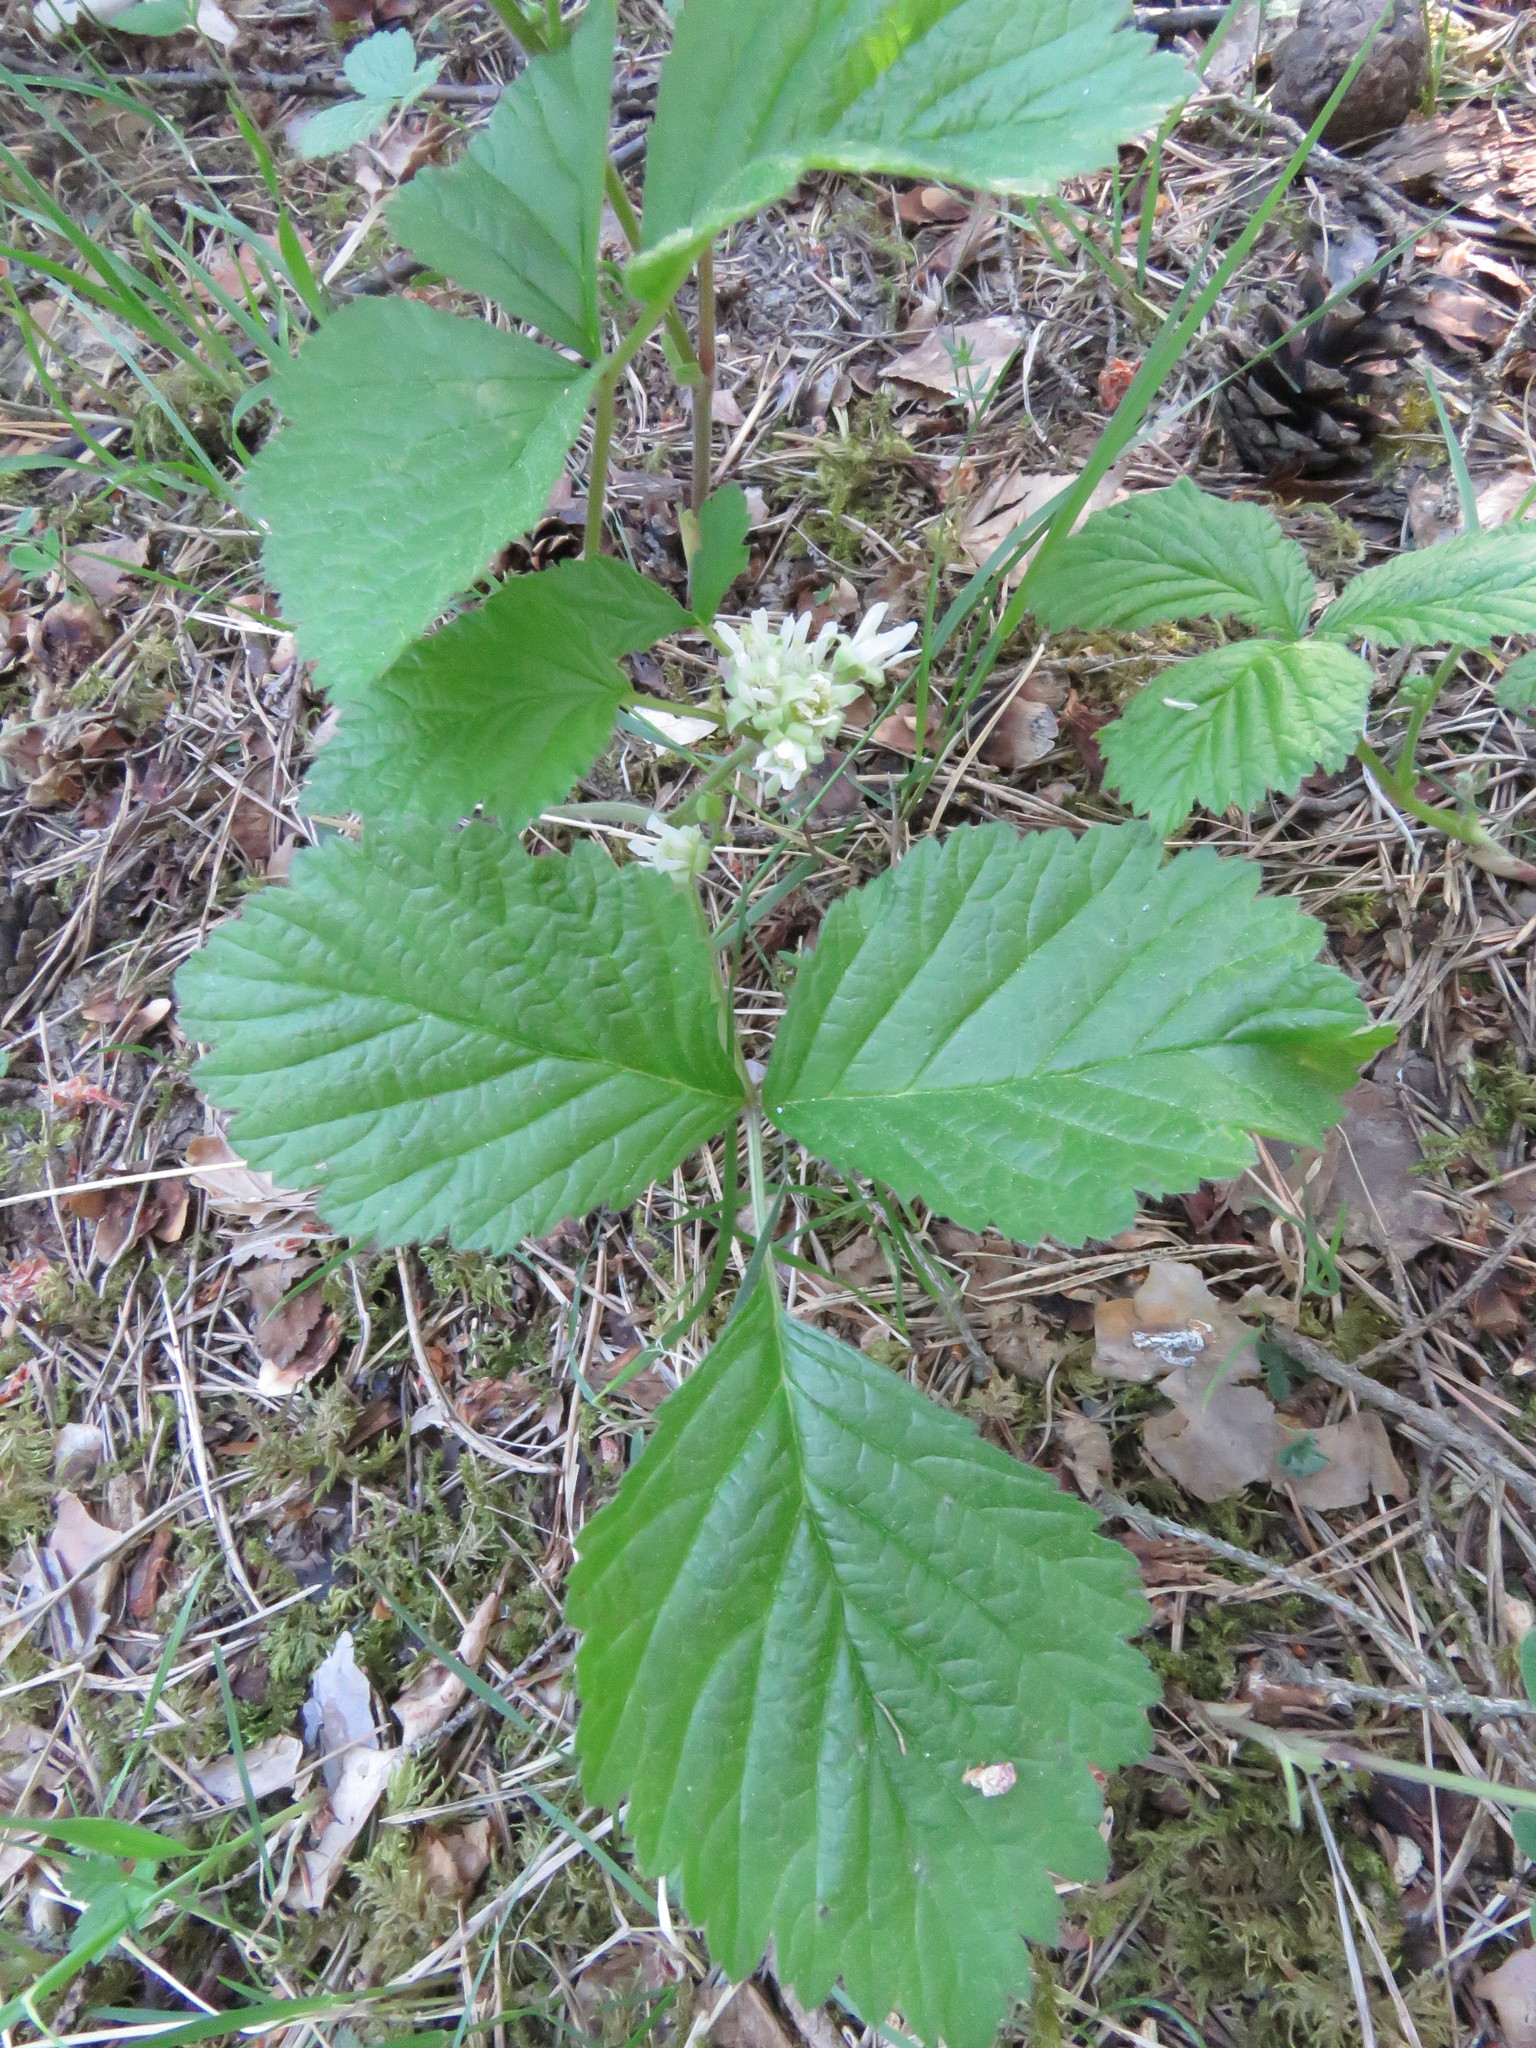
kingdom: Plantae
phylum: Tracheophyta
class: Magnoliopsida
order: Rosales
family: Rosaceae
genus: Rubus
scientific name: Rubus saxatilis
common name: Stone bramble
